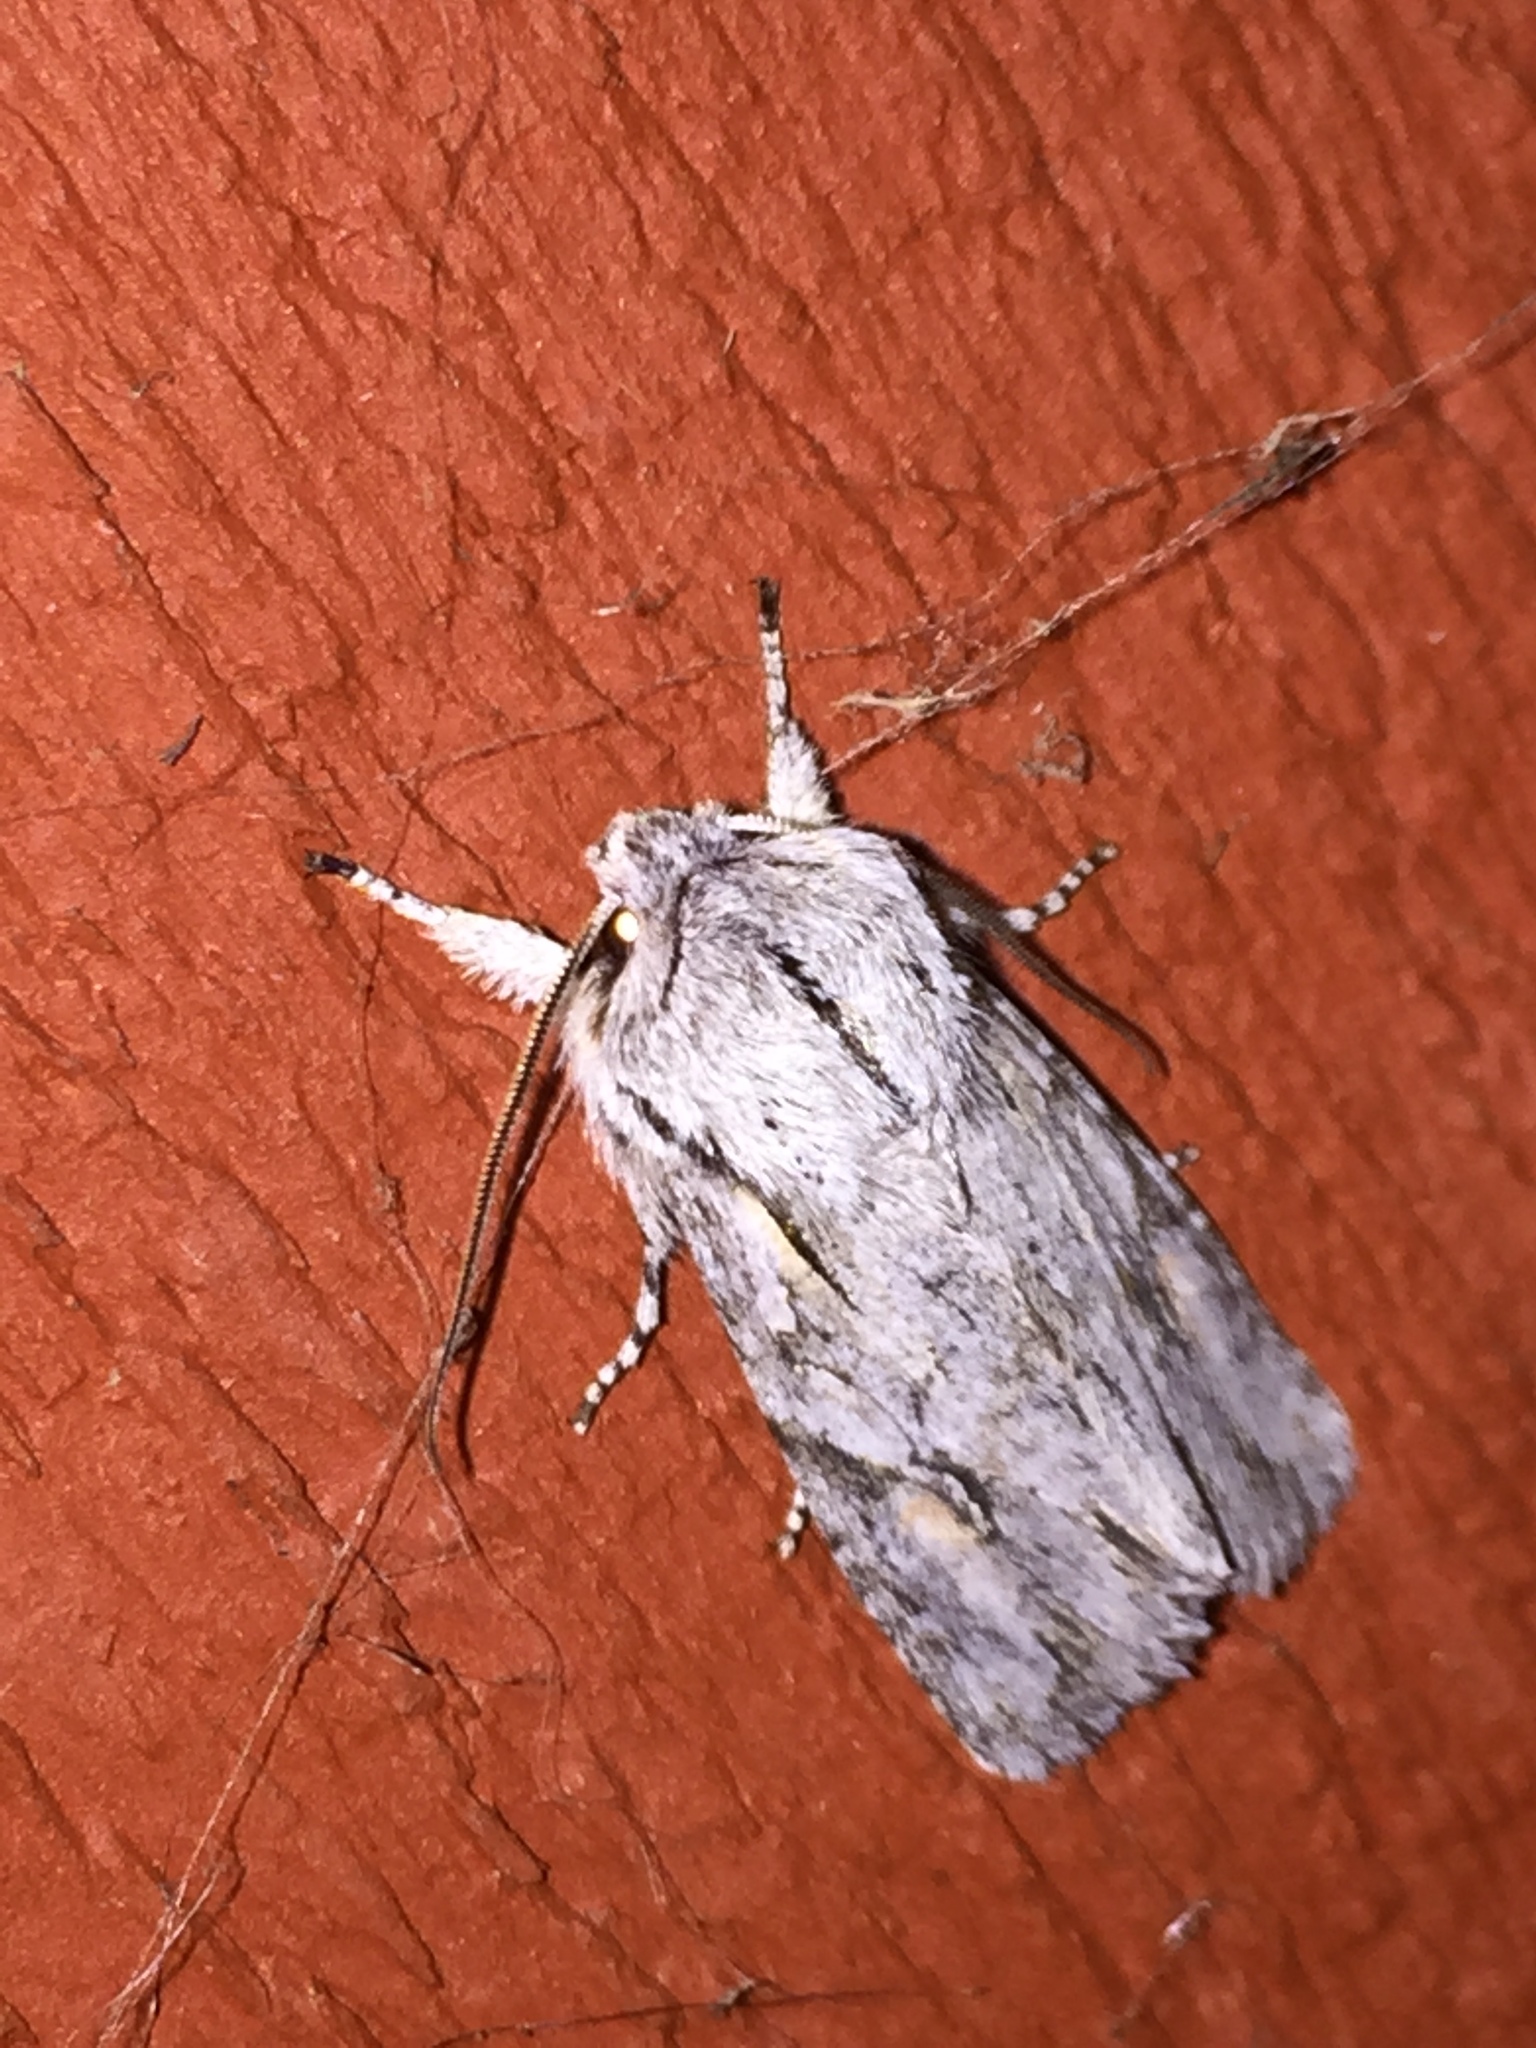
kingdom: Animalia
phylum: Arthropoda
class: Insecta
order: Lepidoptera
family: Noctuidae
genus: Egira
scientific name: Egira crucialis
